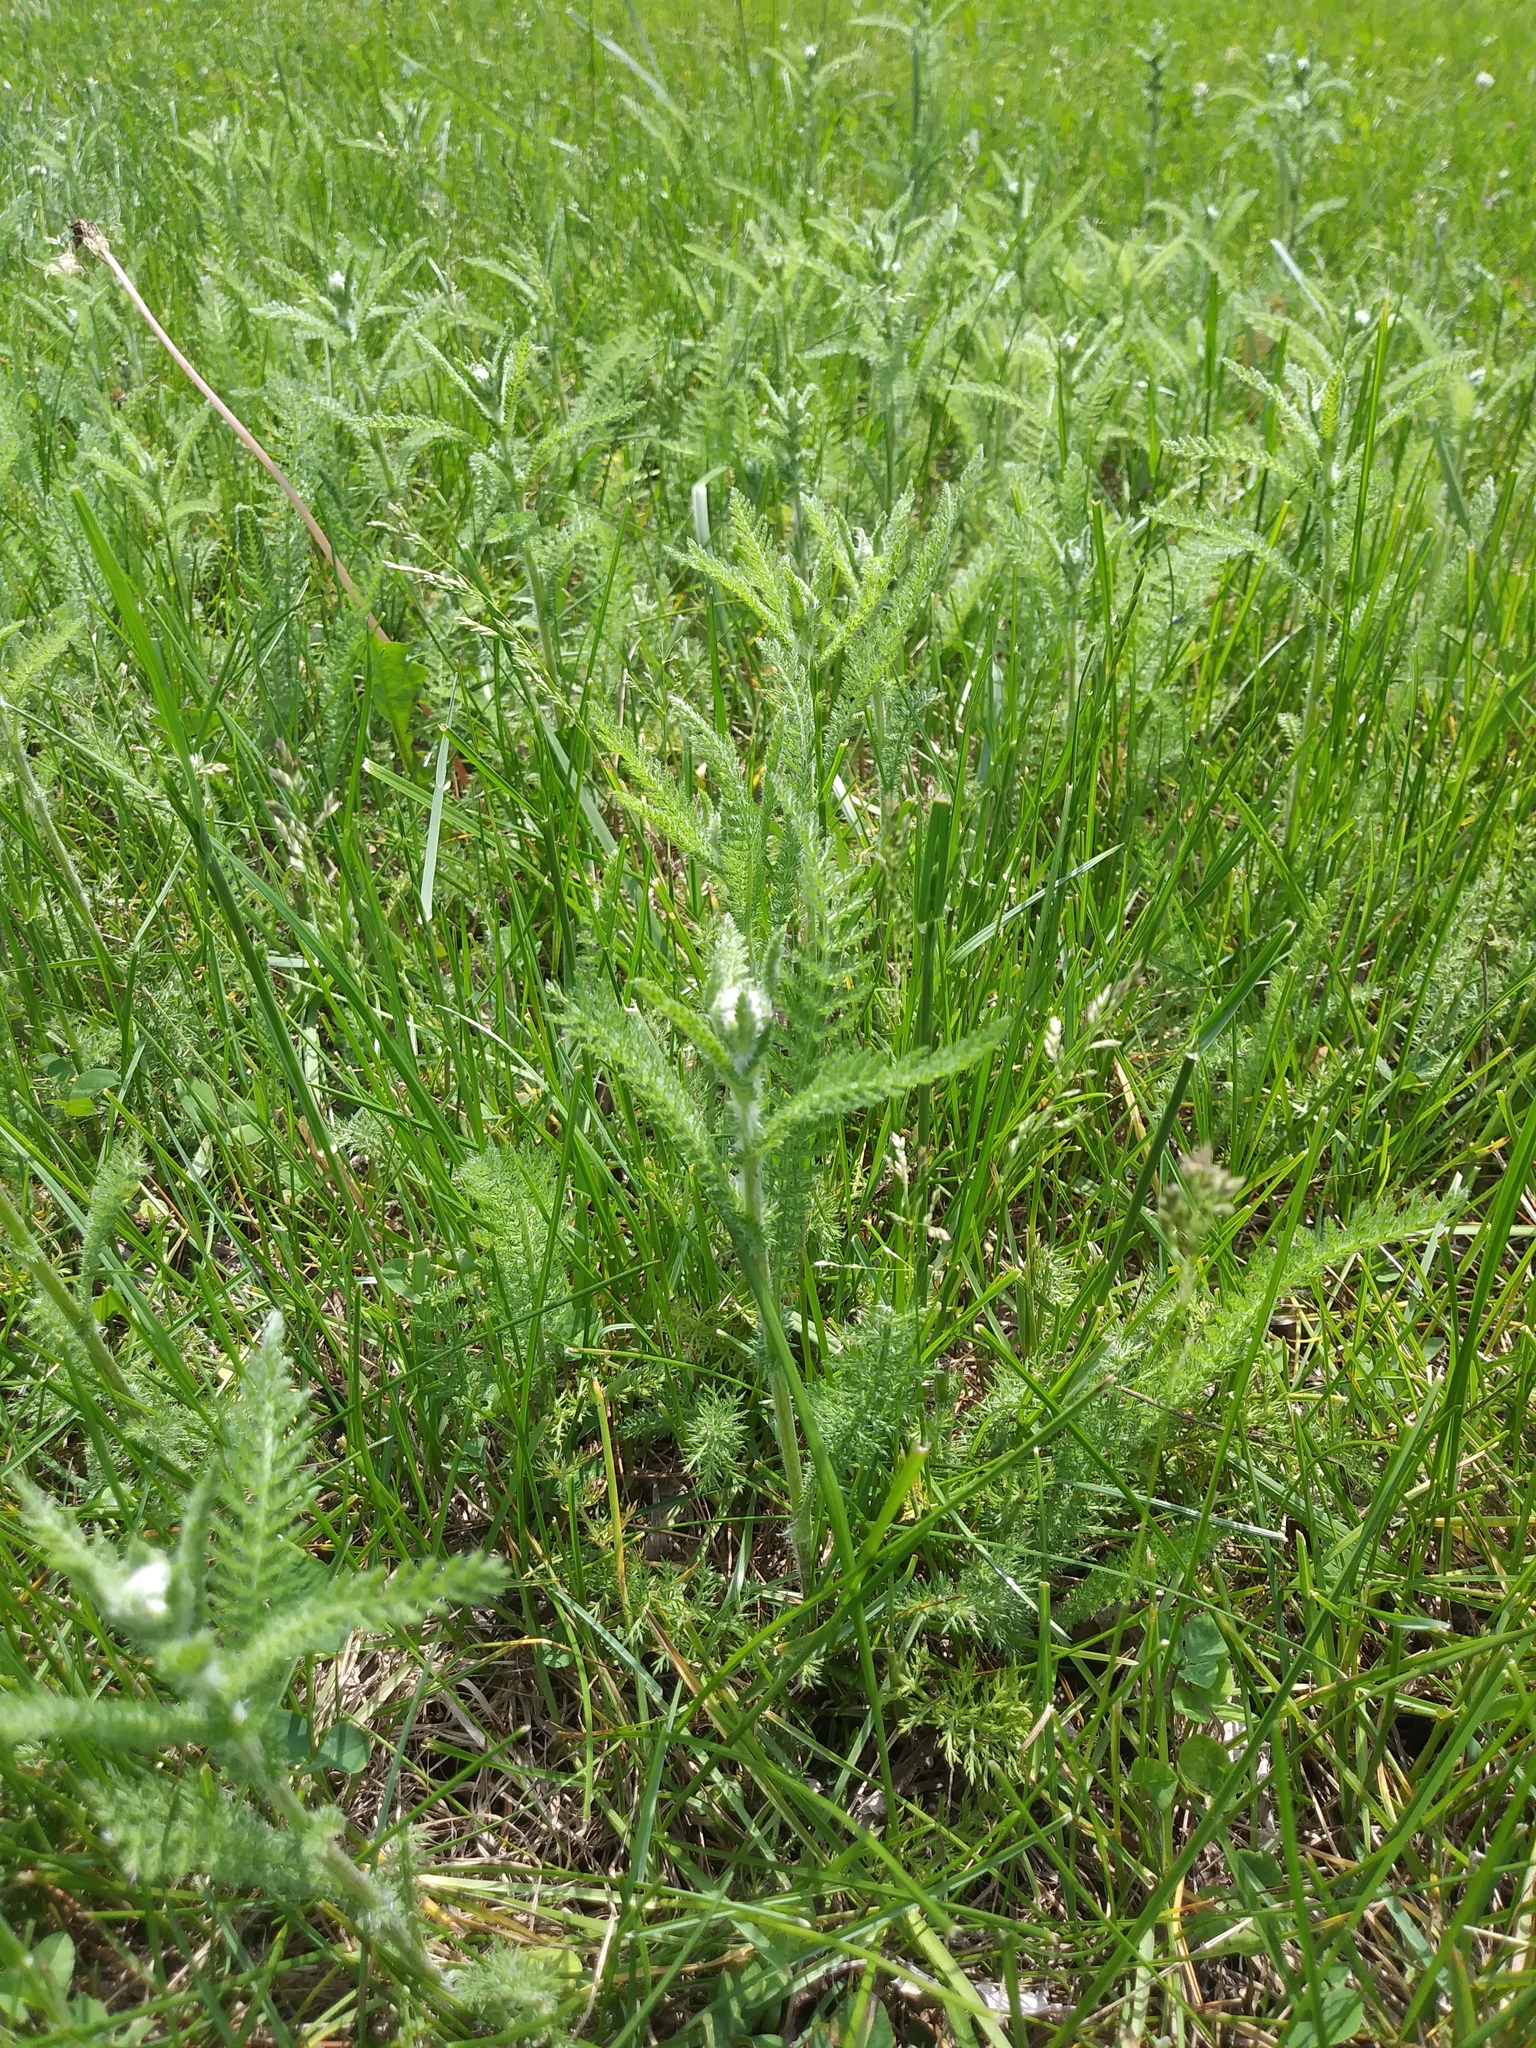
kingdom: Plantae
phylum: Tracheophyta
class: Magnoliopsida
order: Asterales
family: Asteraceae
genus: Achillea
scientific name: Achillea millefolium
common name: Yarrow
